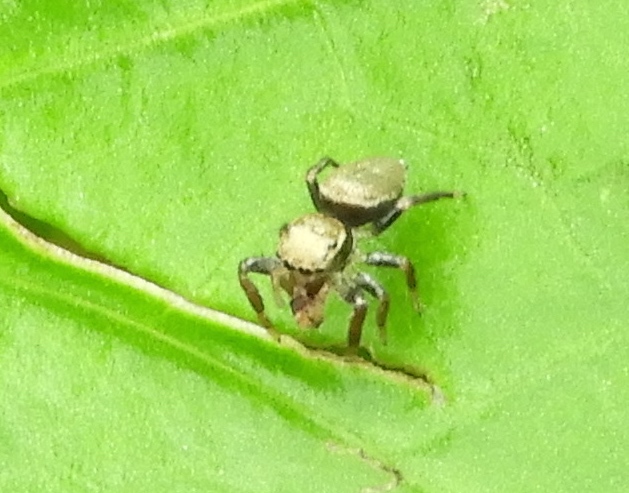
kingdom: Animalia
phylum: Arthropoda
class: Arachnida
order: Araneae
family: Salticidae
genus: Messua
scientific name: Messua limbata
